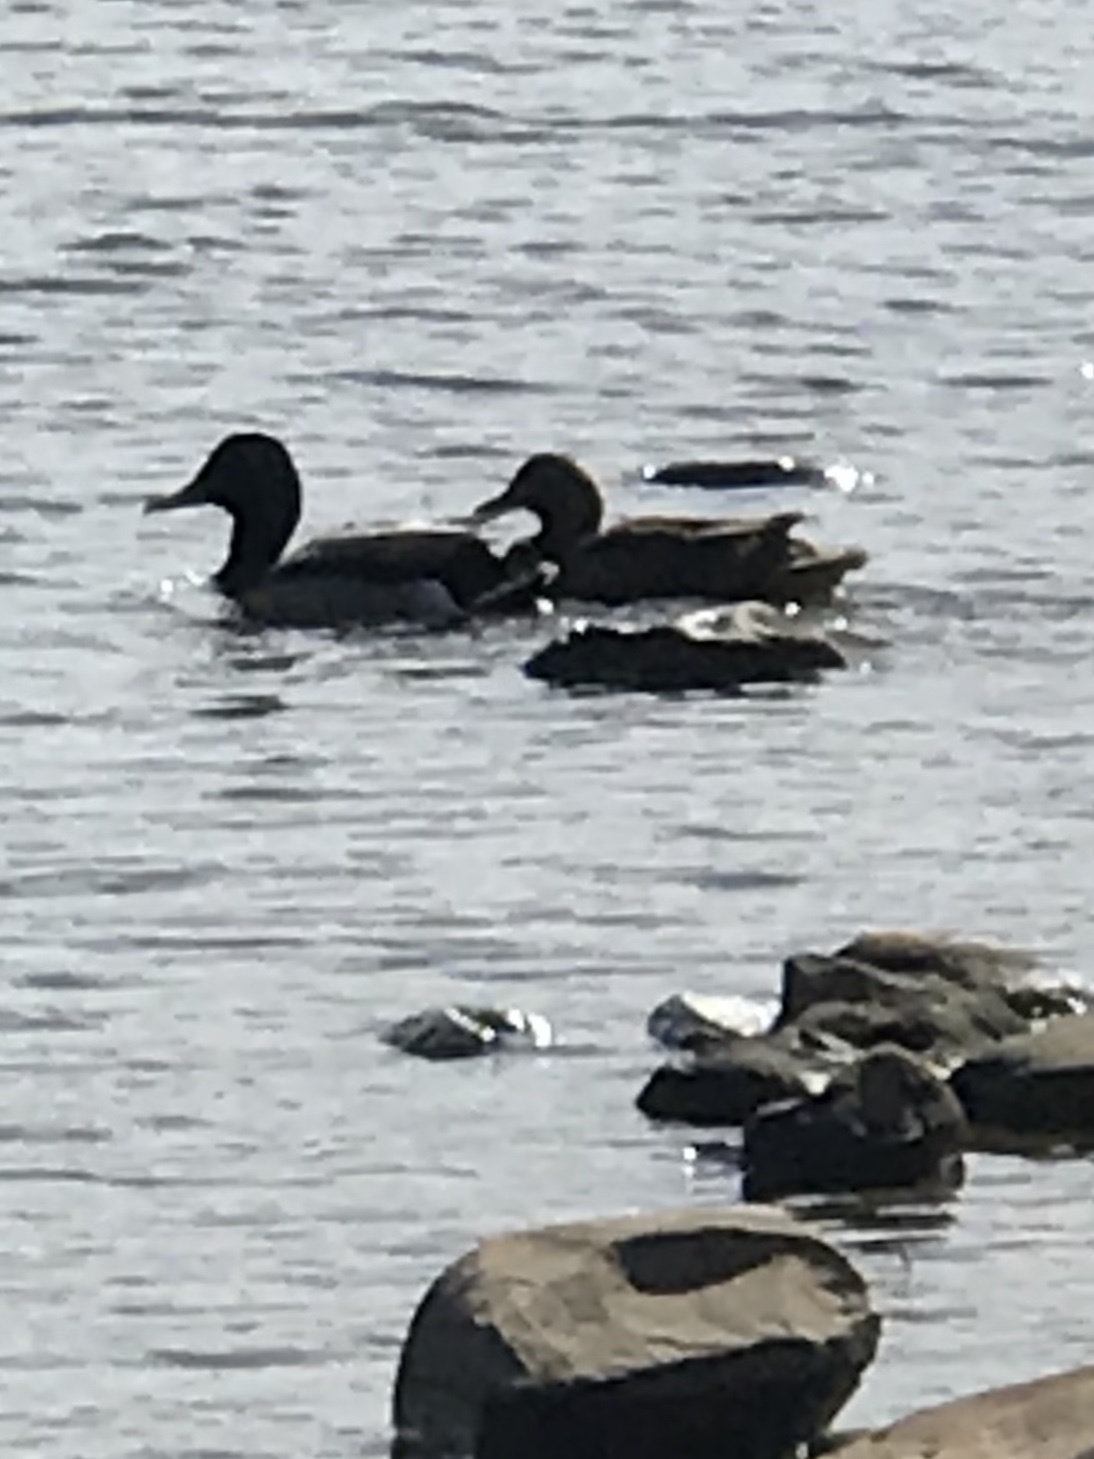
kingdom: Animalia
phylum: Chordata
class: Aves
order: Anseriformes
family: Anatidae
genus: Anas
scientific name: Anas platyrhynchos
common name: Mallard
